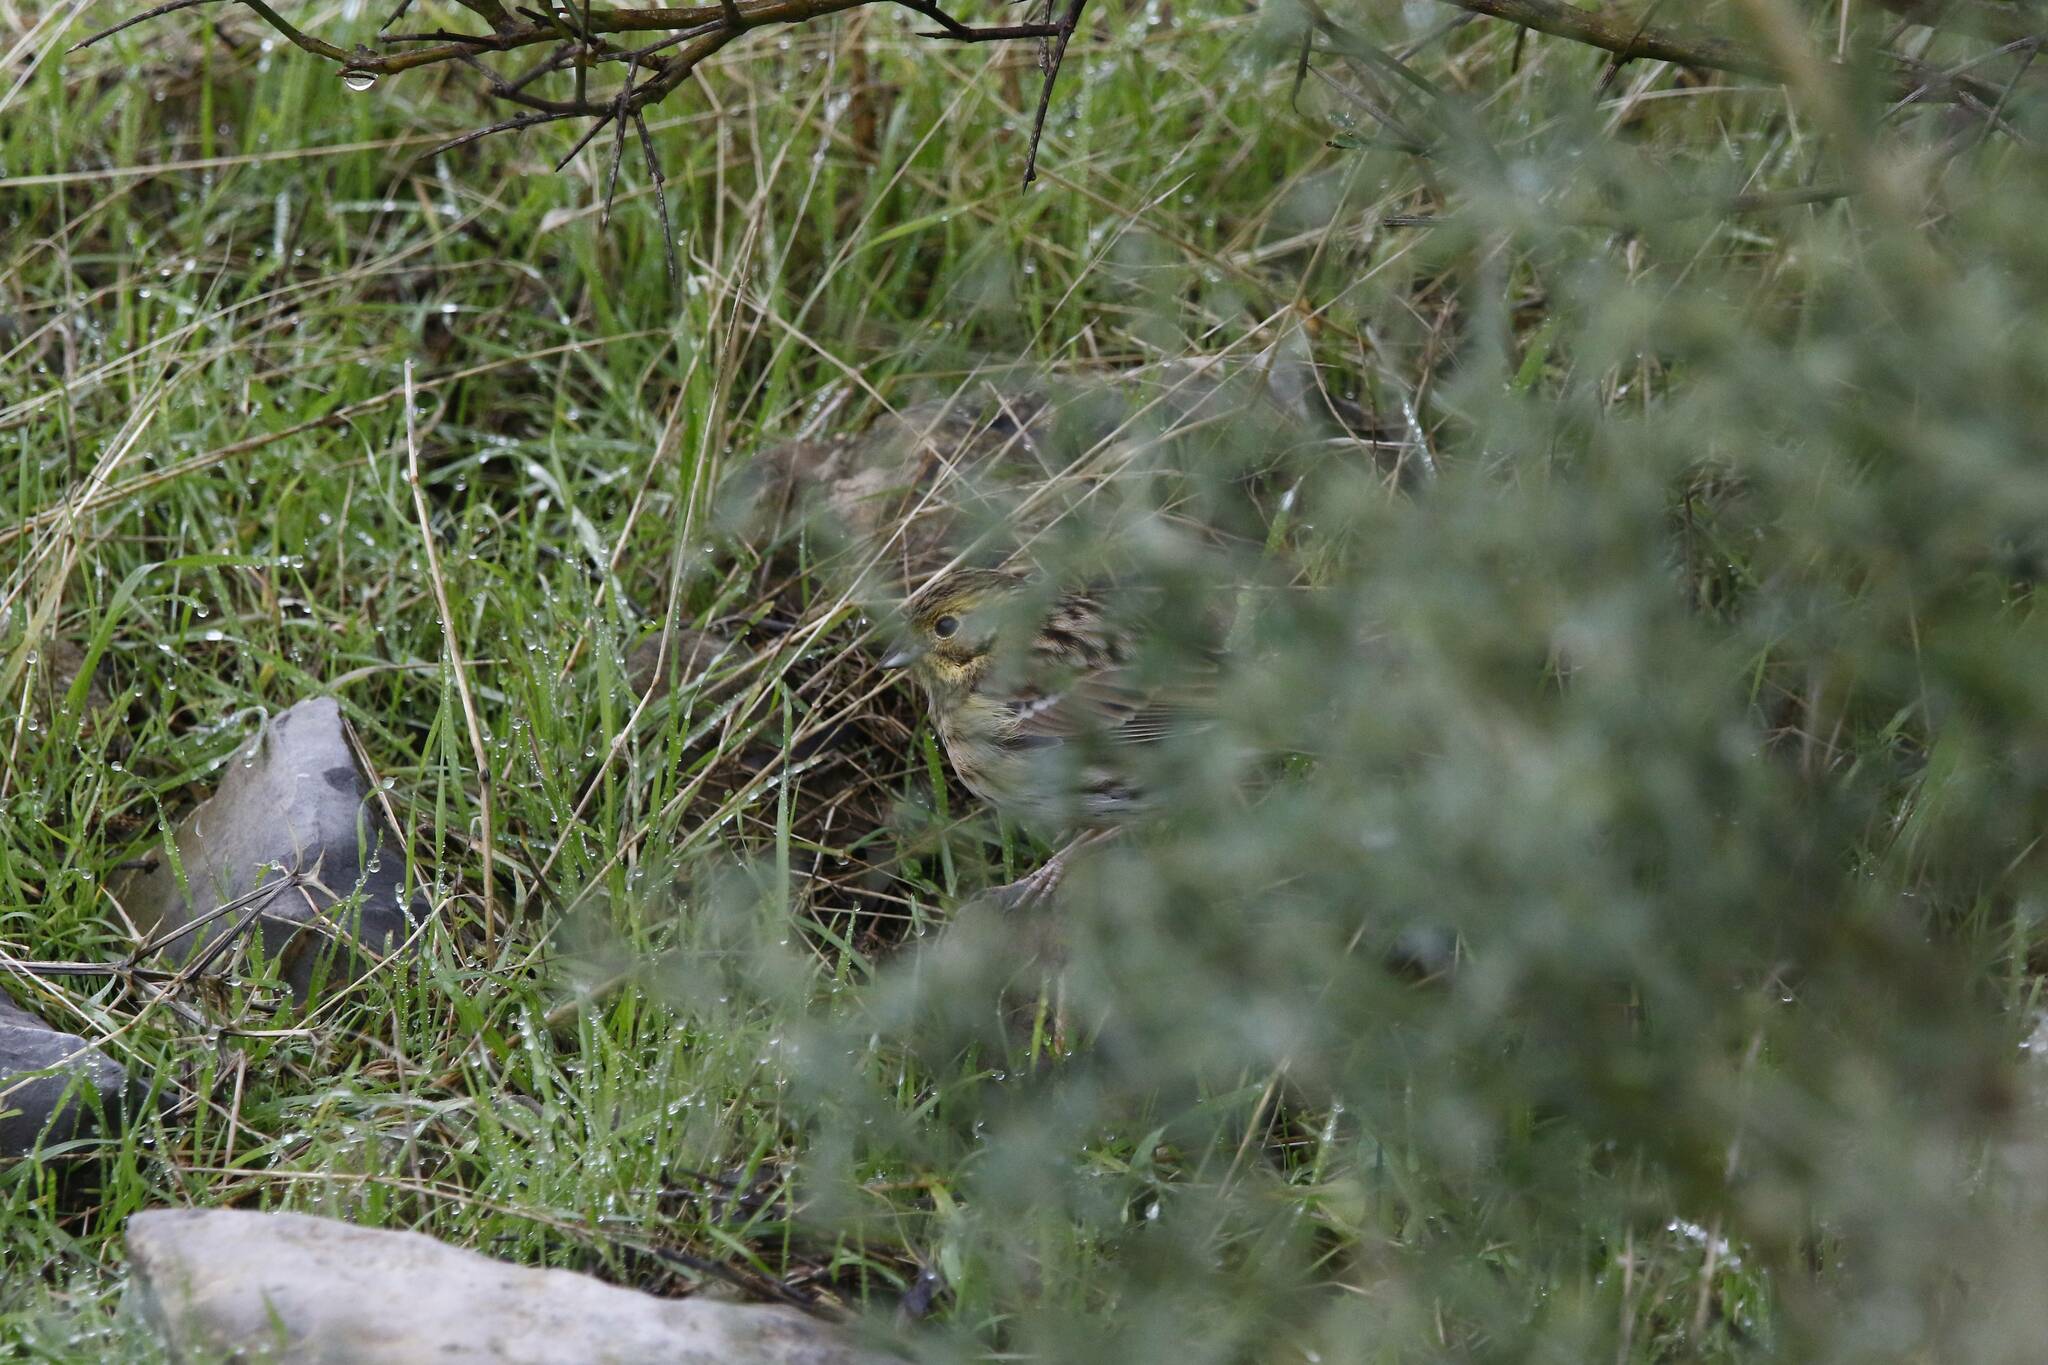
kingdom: Animalia
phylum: Chordata
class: Aves
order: Passeriformes
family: Emberizidae
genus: Emberiza
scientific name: Emberiza cirlus
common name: Cirl bunting
